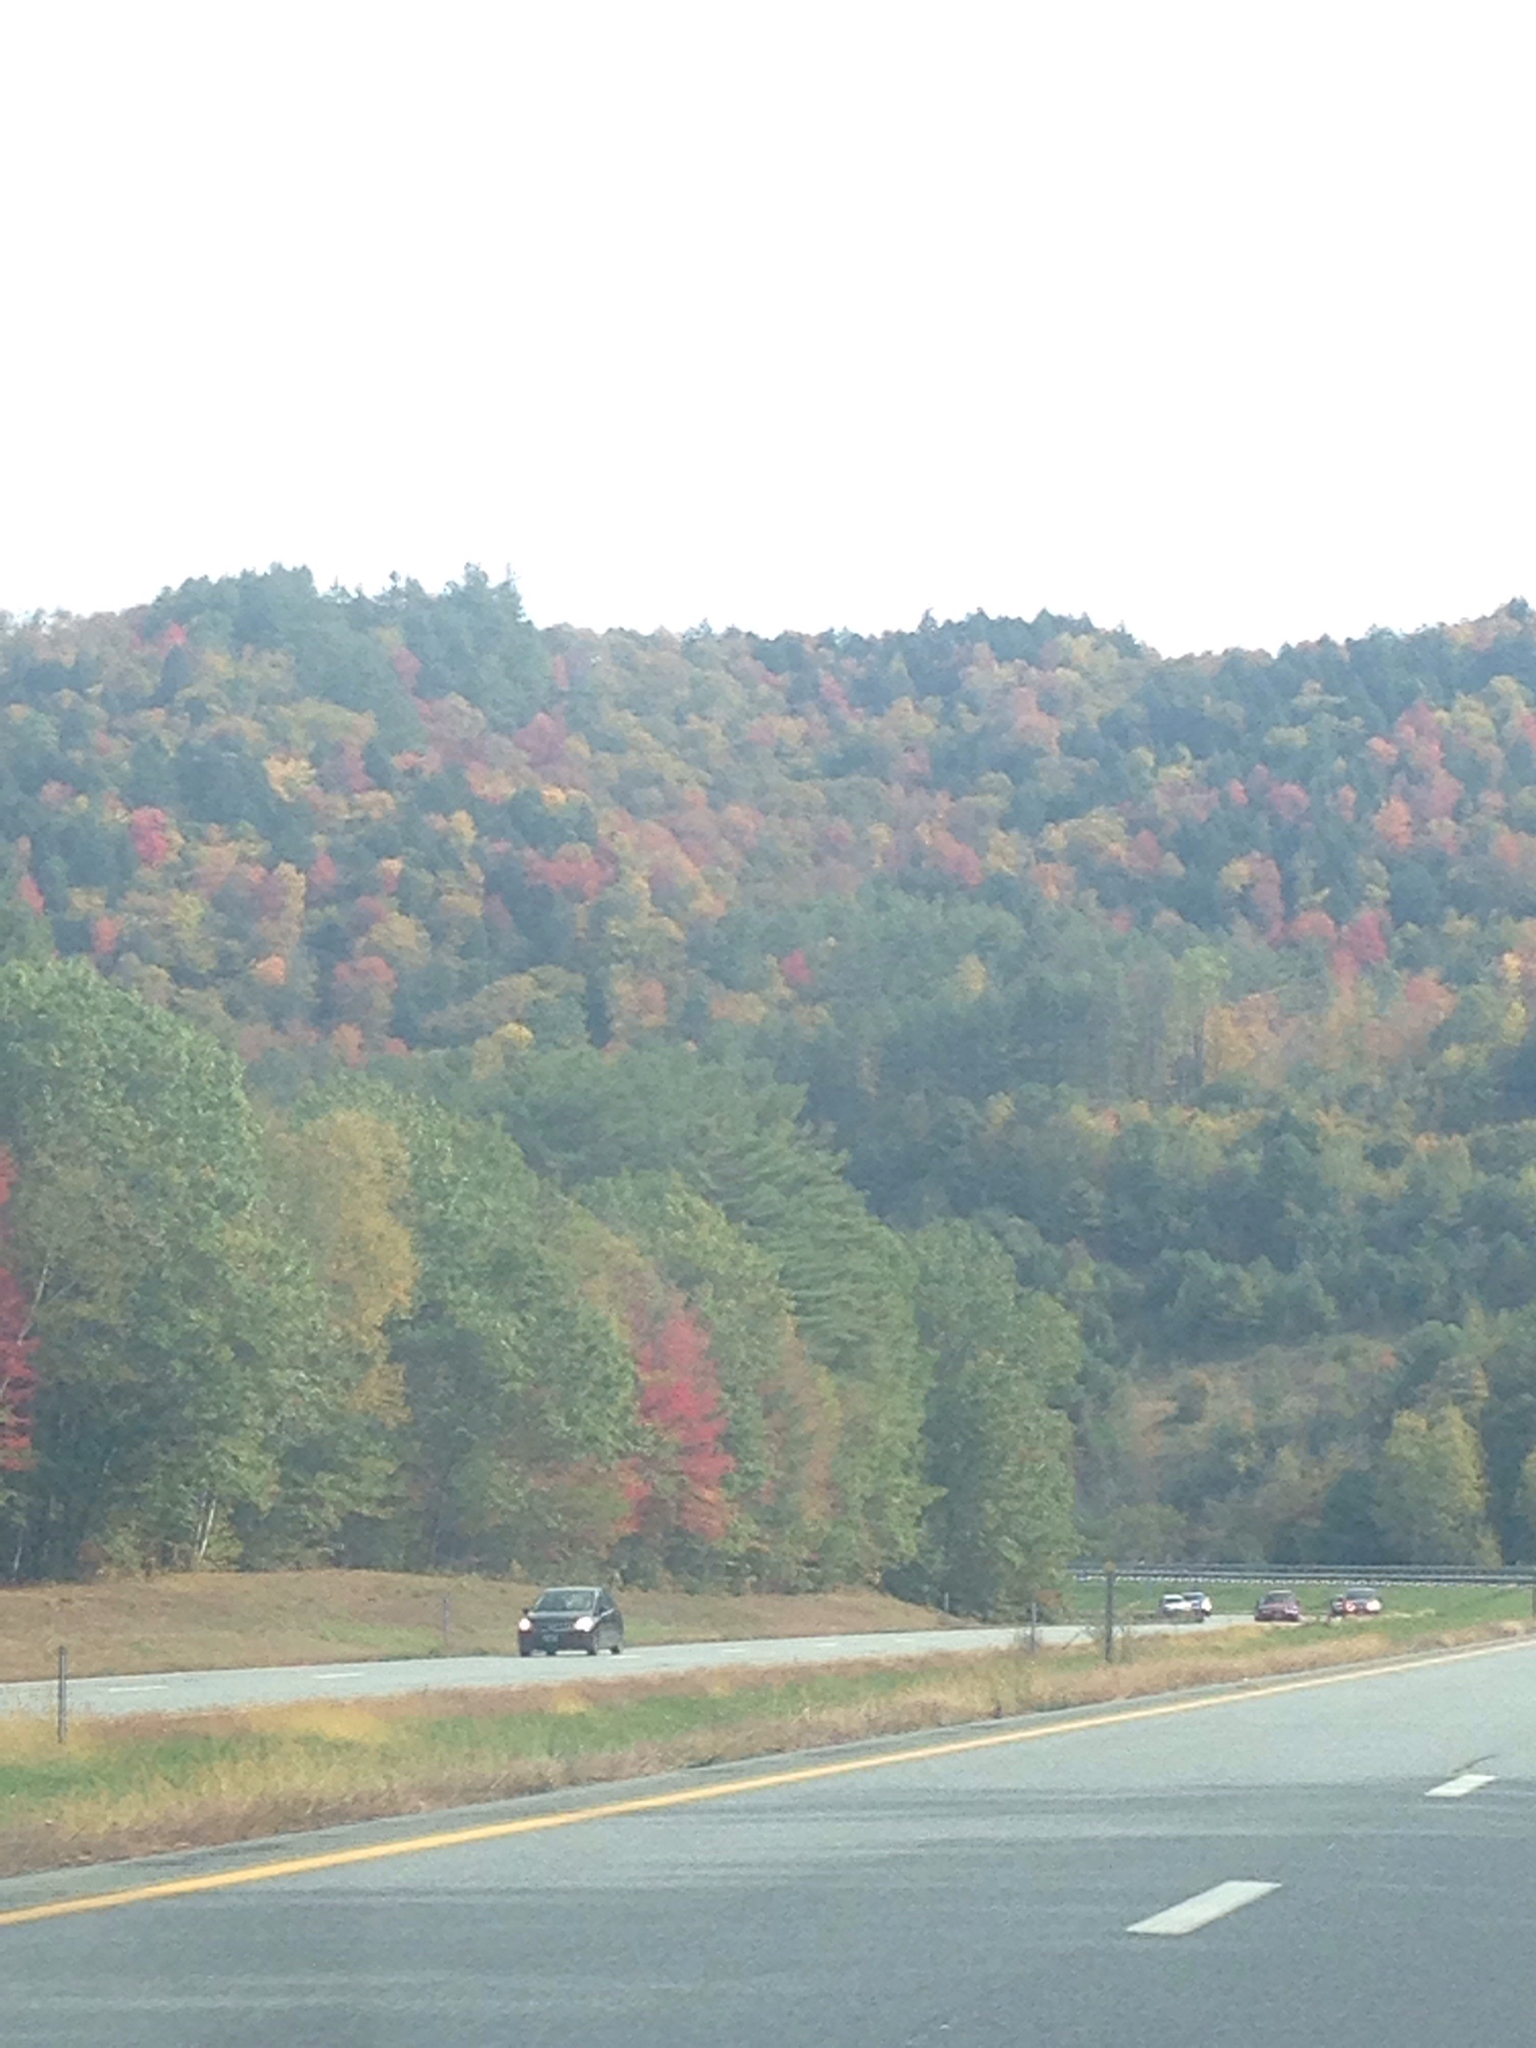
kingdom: Plantae
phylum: Tracheophyta
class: Pinopsida
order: Pinales
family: Pinaceae
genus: Tsuga
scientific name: Tsuga canadensis
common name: Eastern hemlock
